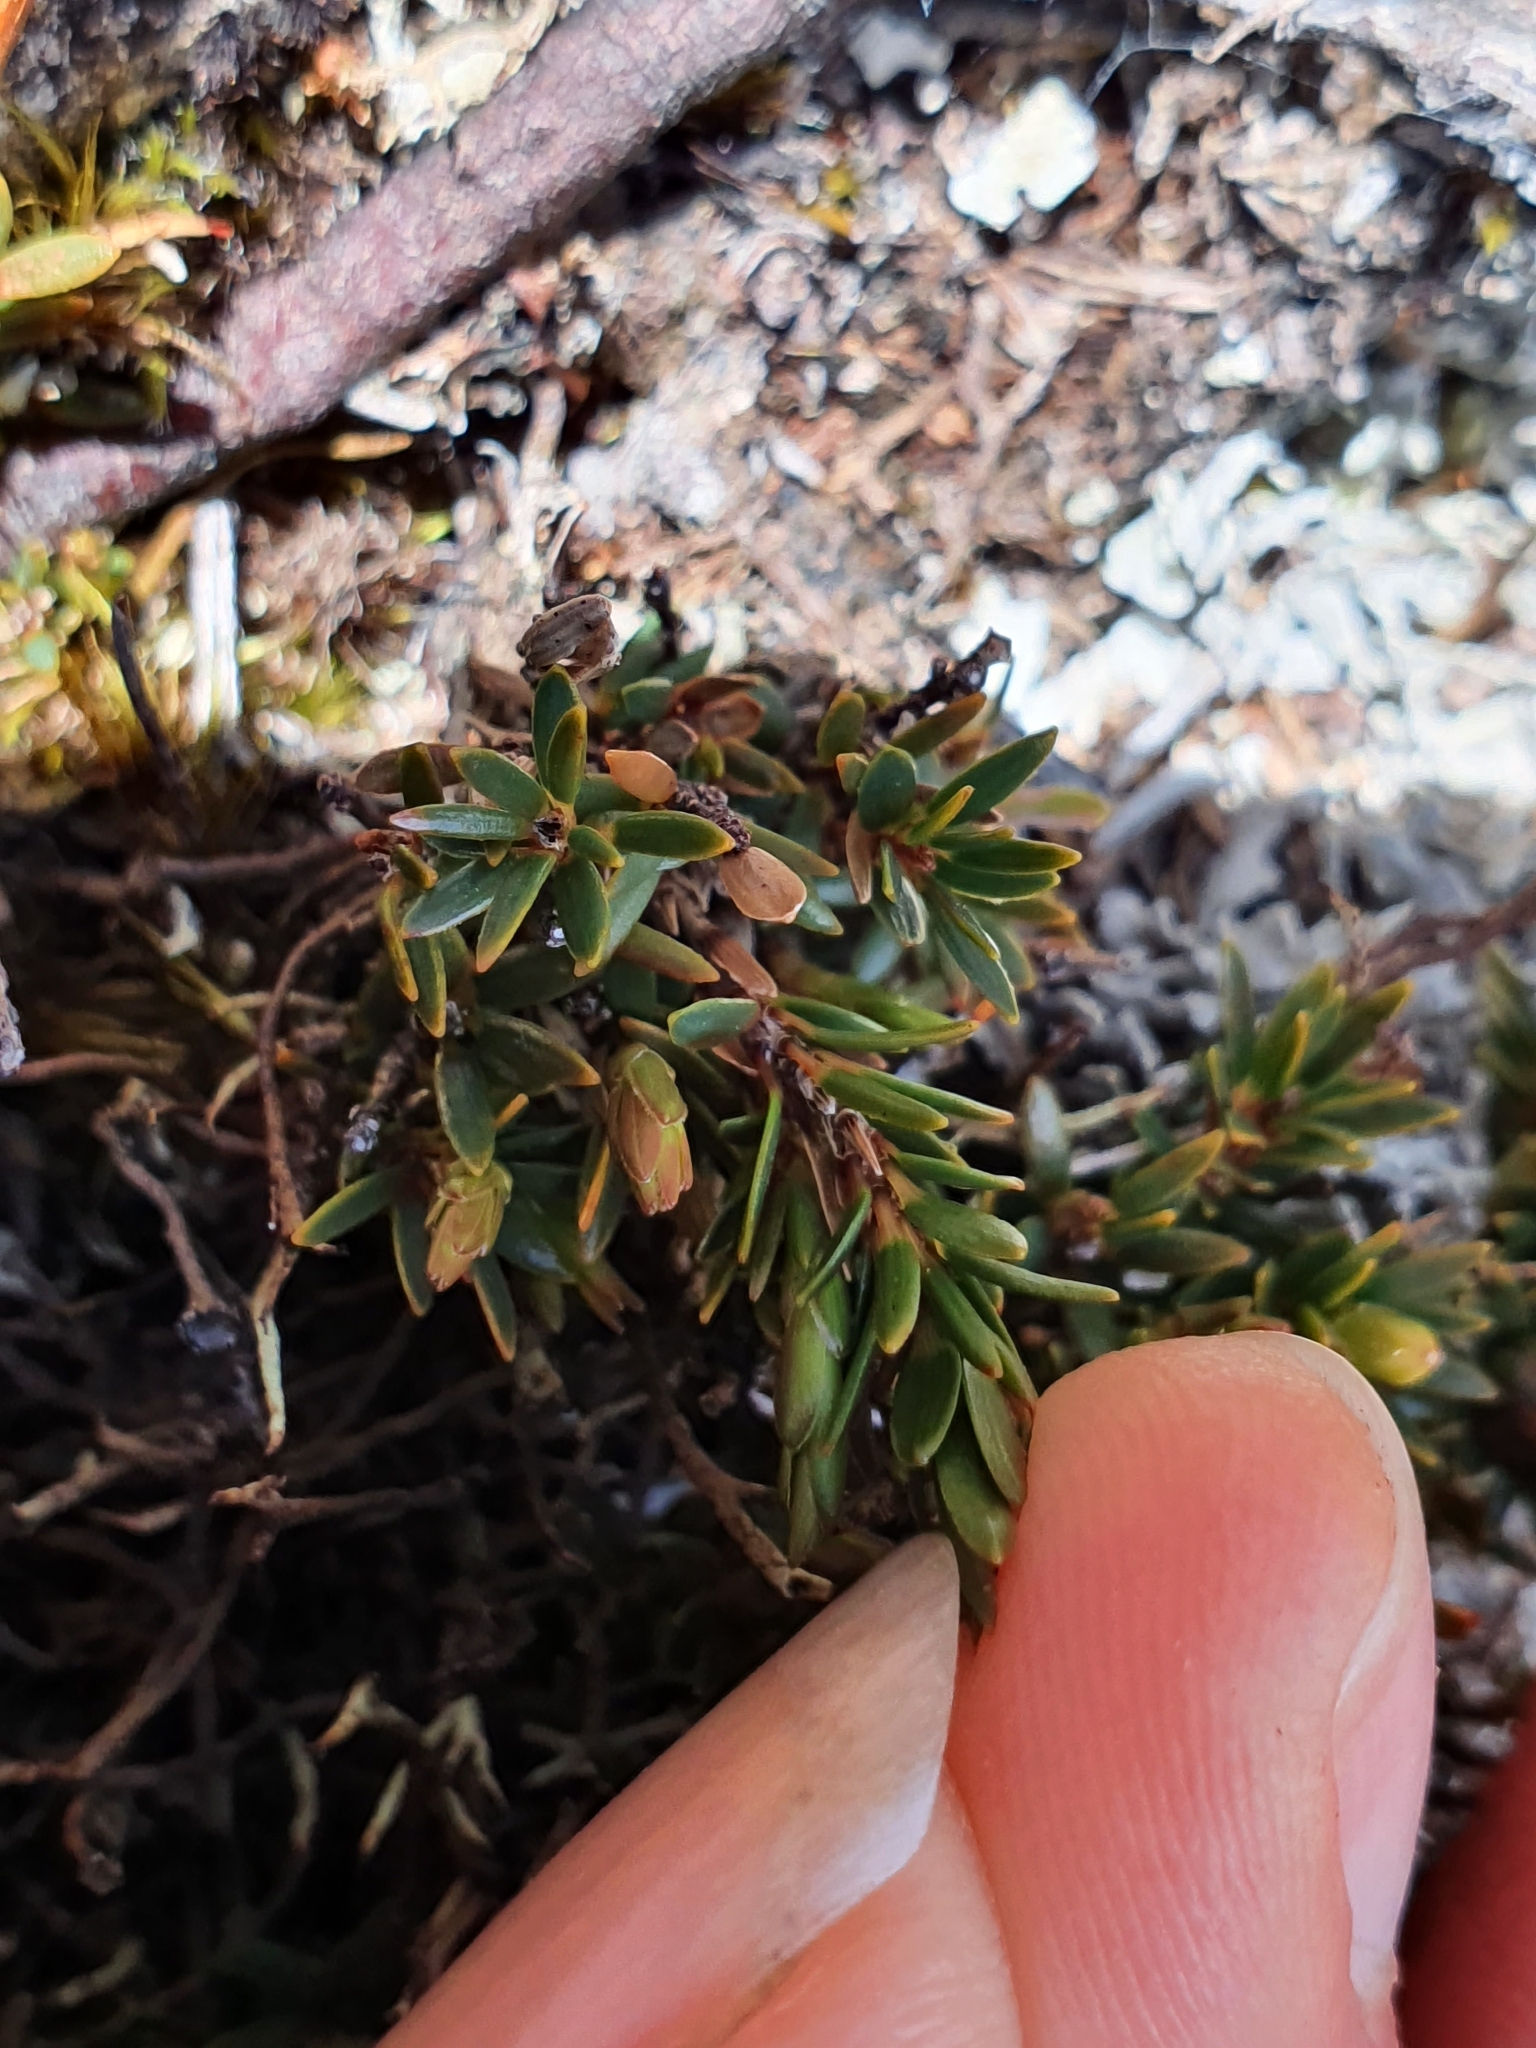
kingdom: Plantae
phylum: Tracheophyta
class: Magnoliopsida
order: Ericales
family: Ericaceae
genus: Pentachondra
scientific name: Pentachondra pumila
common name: Carpet-heath
